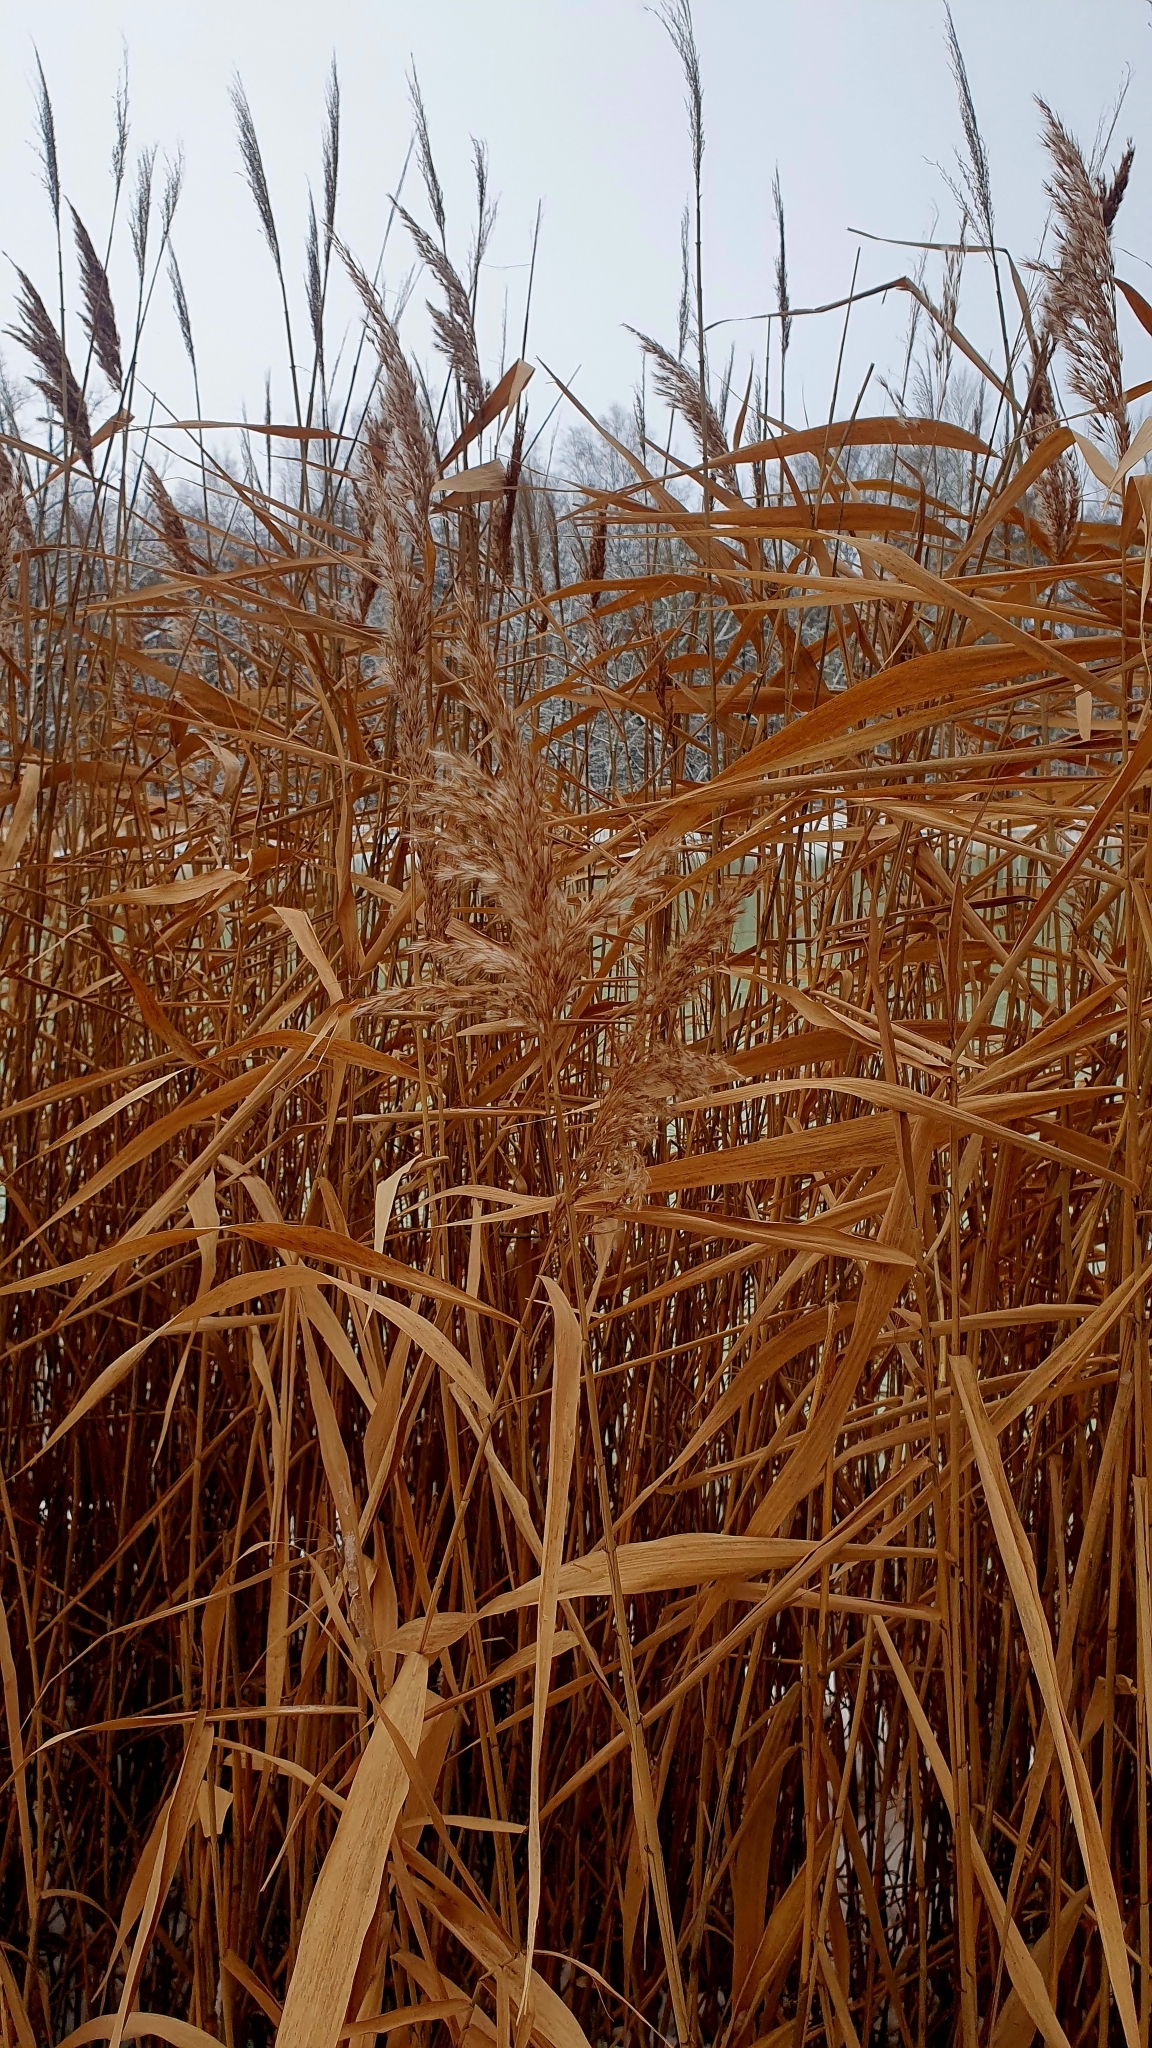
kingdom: Plantae
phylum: Tracheophyta
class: Liliopsida
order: Poales
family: Poaceae
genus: Phragmites
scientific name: Phragmites australis
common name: Common reed
